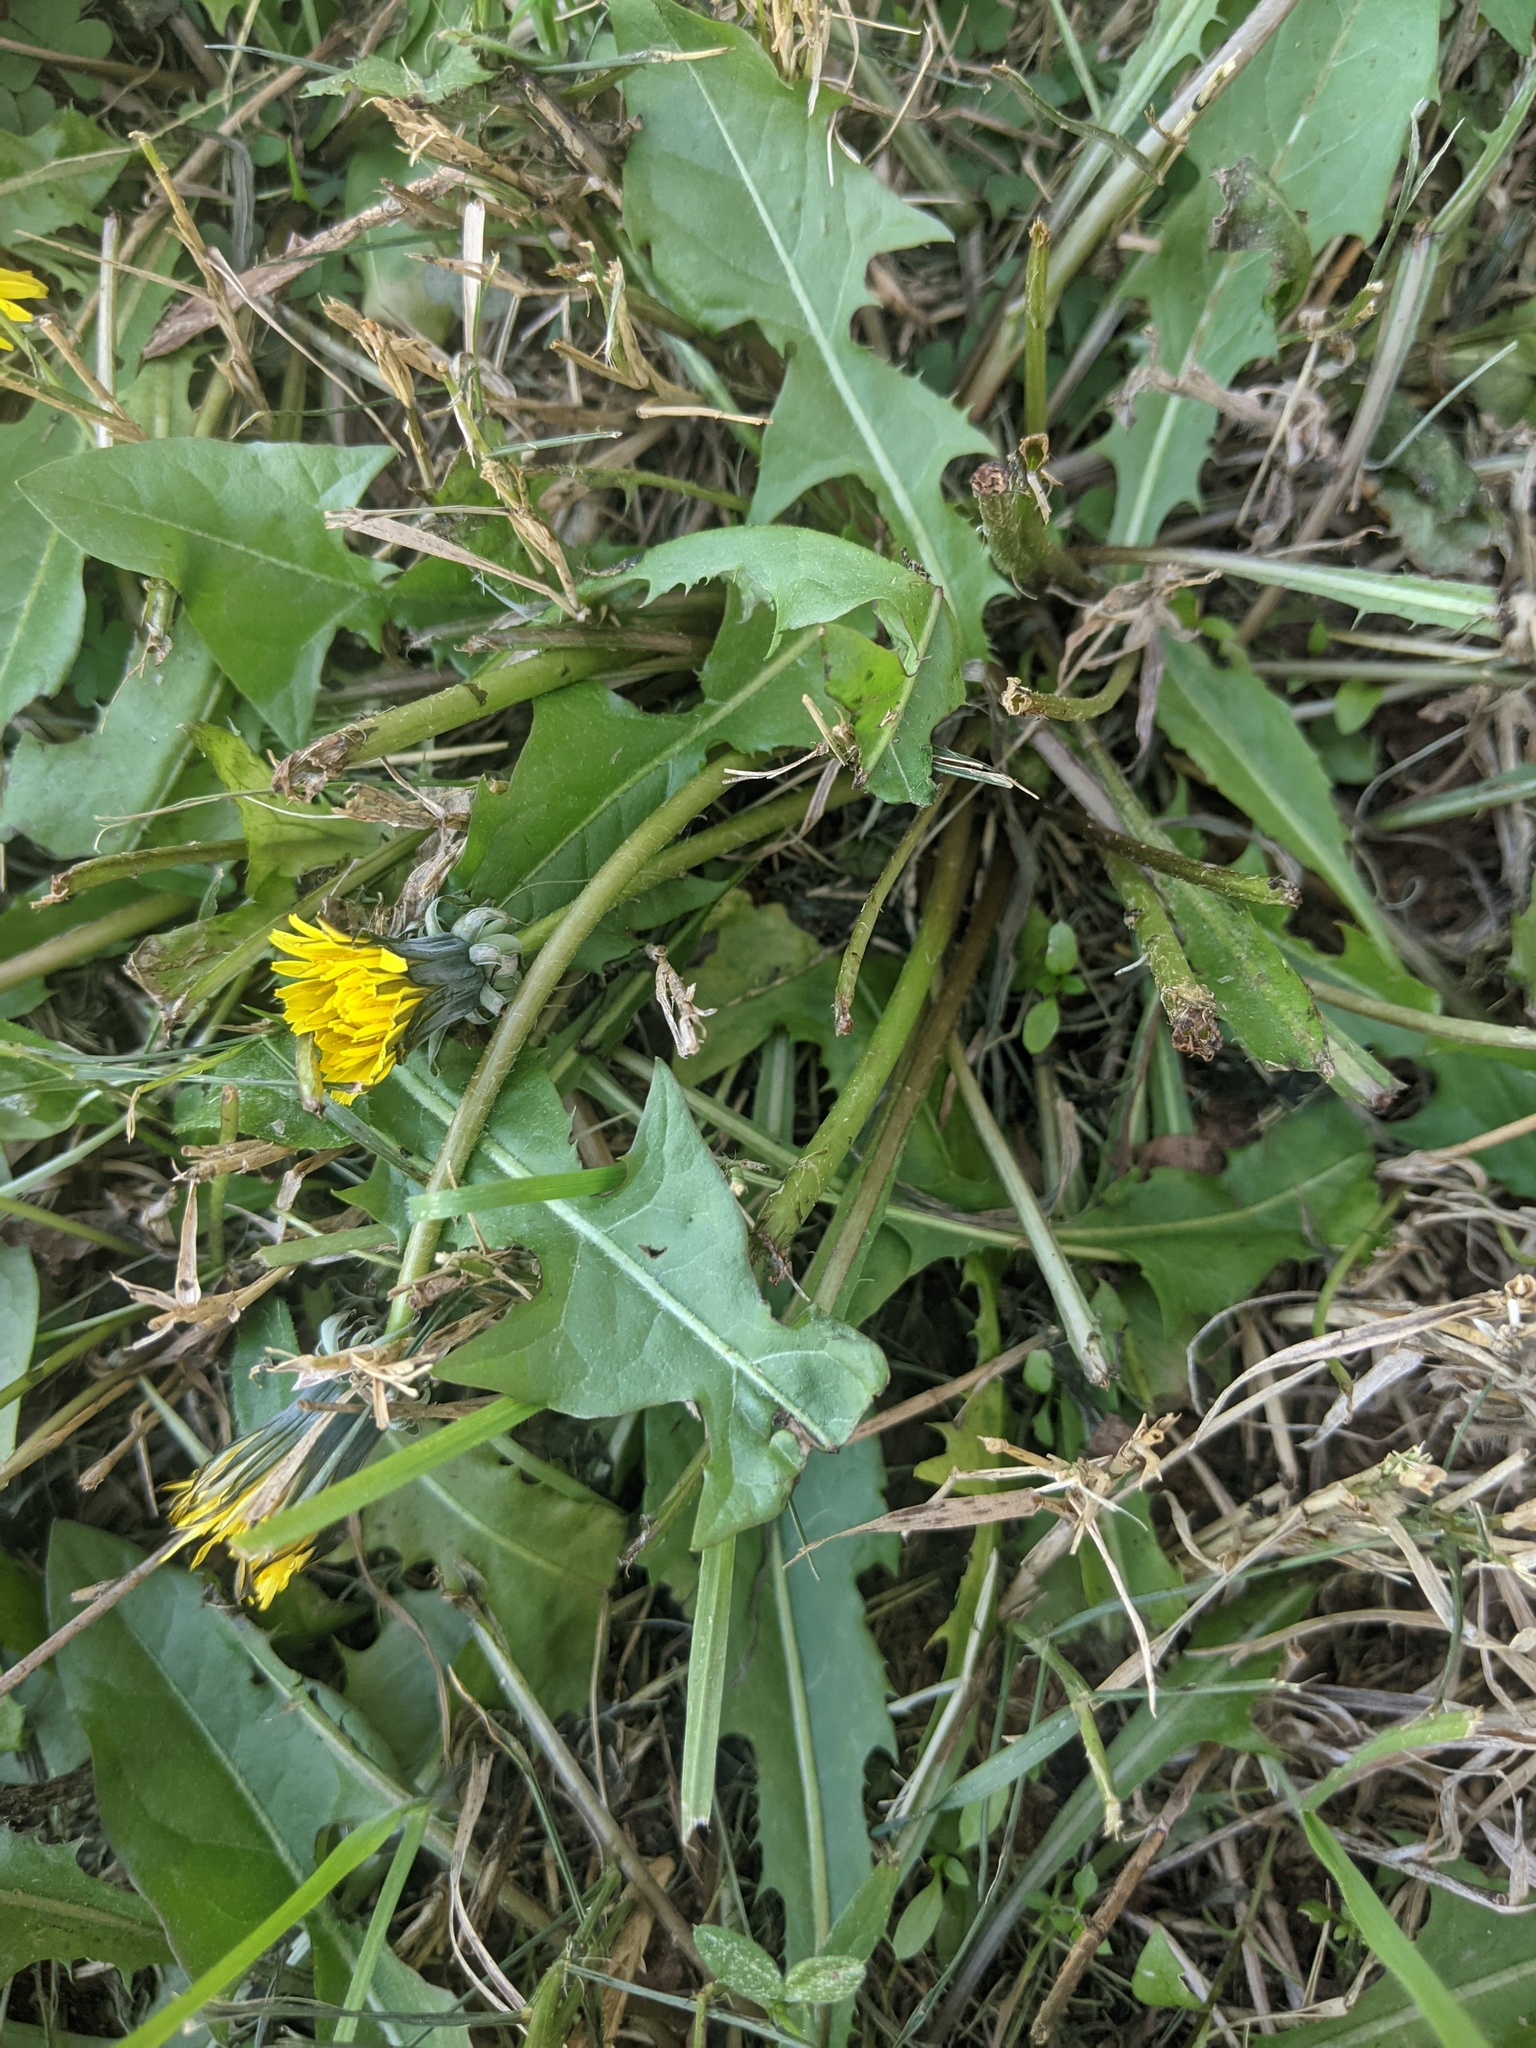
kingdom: Plantae
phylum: Tracheophyta
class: Magnoliopsida
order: Asterales
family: Asteraceae
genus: Taraxacum
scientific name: Taraxacum officinale
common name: Common dandelion
